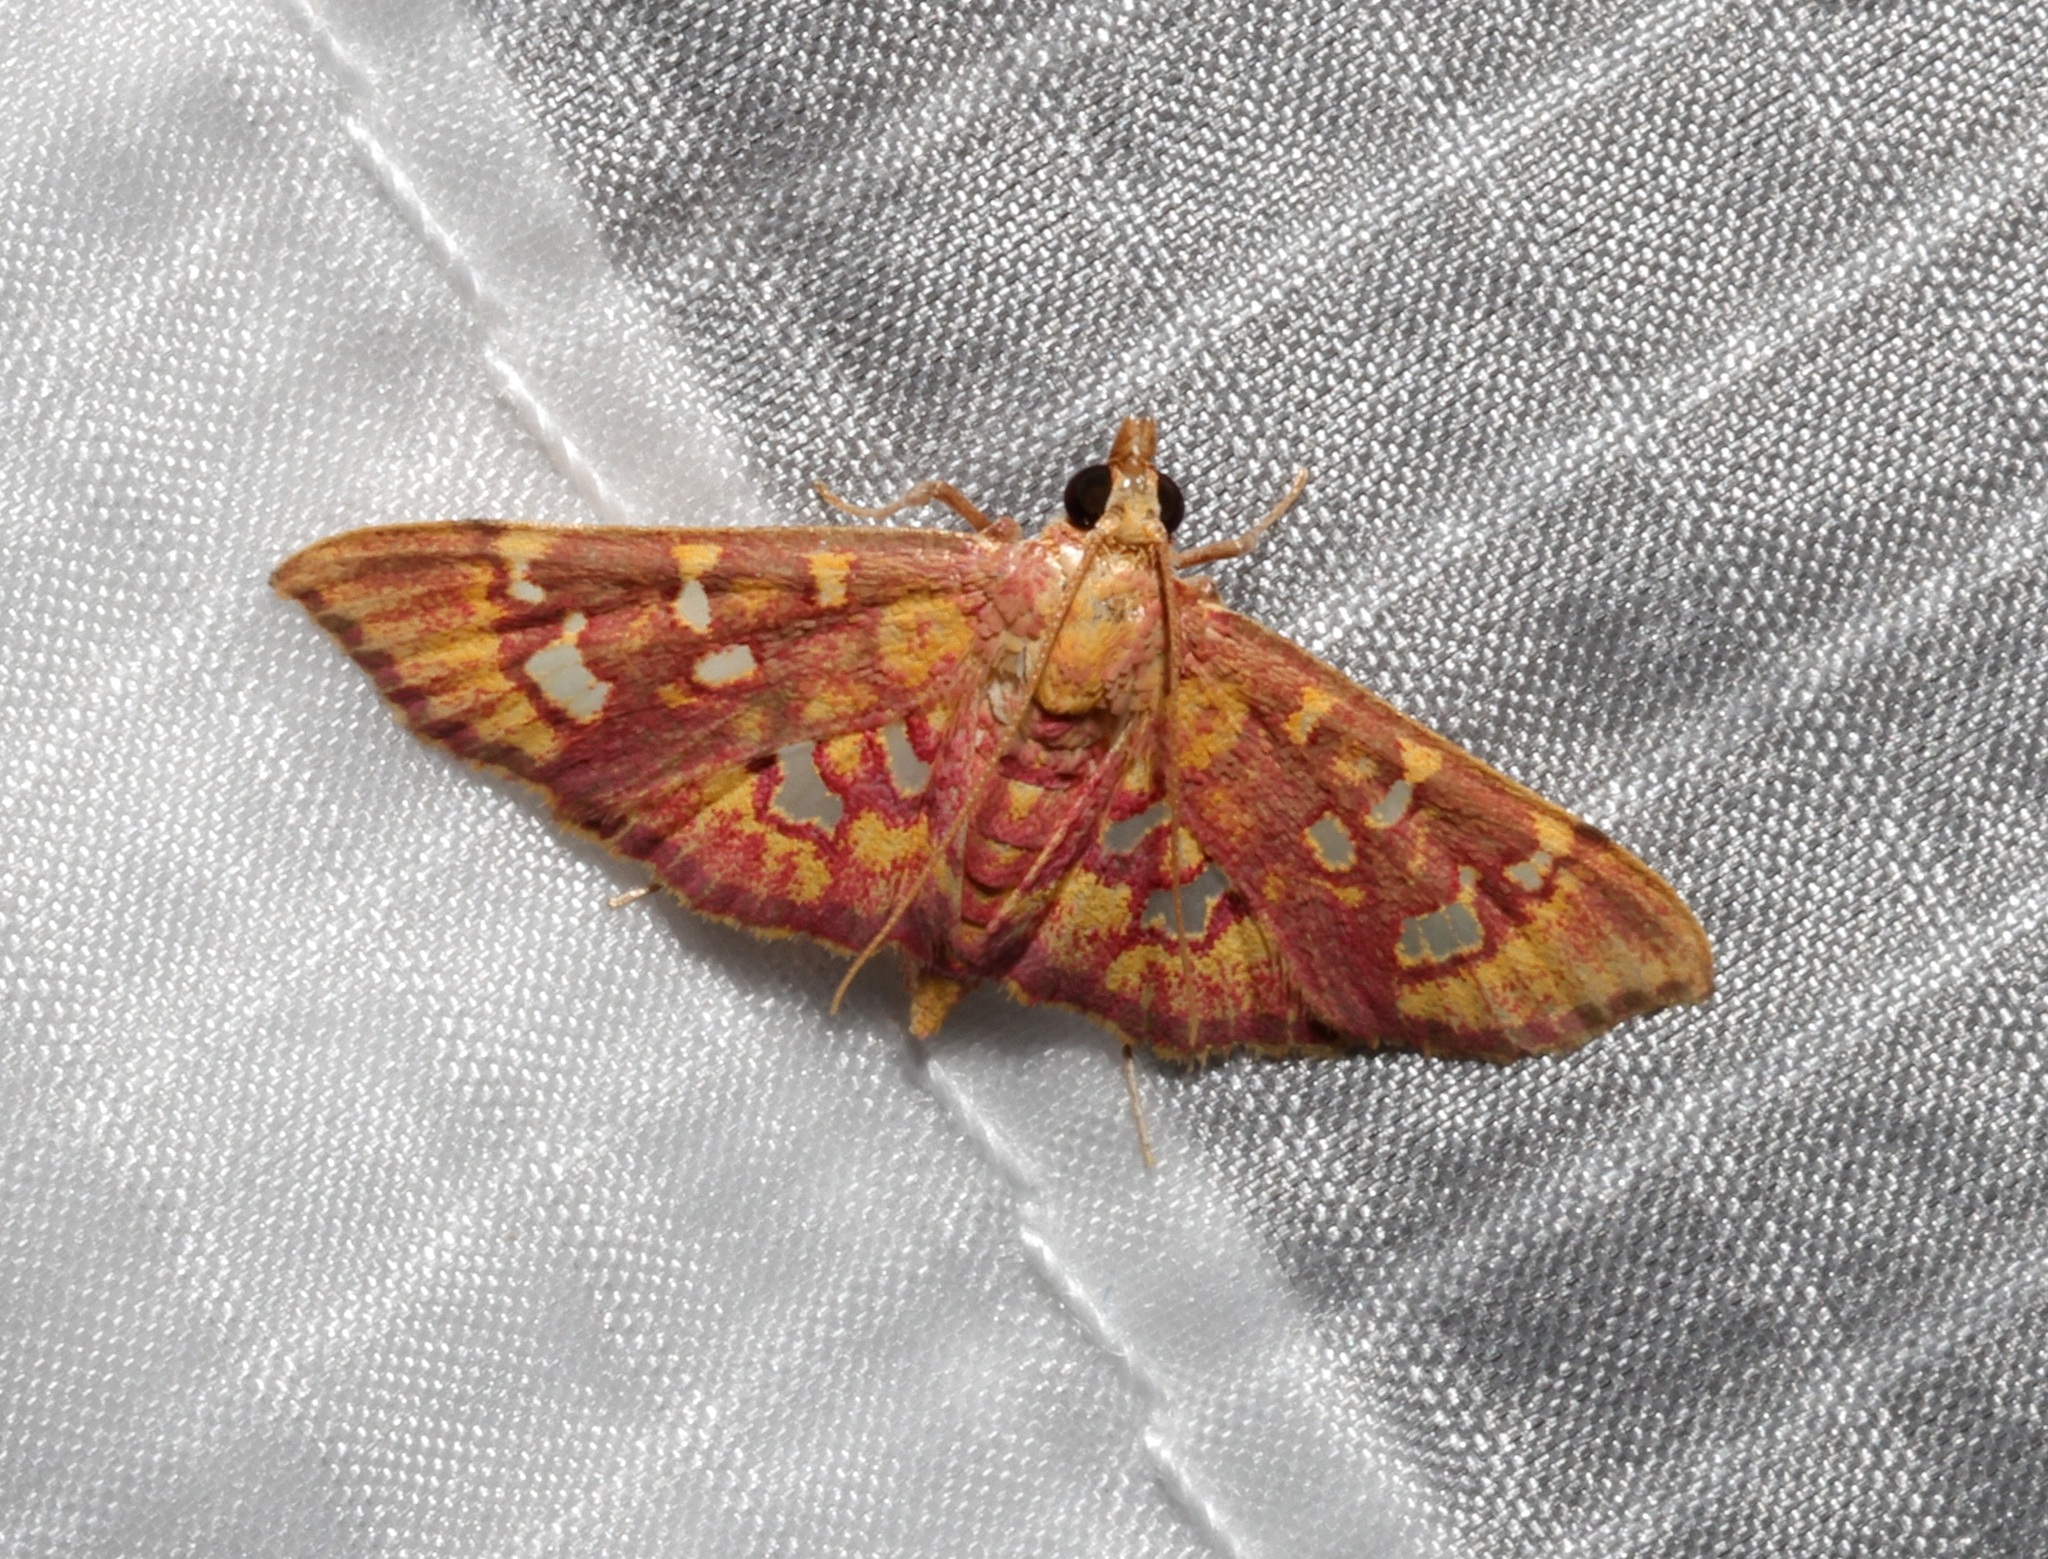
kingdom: Animalia
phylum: Arthropoda
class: Insecta
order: Lepidoptera
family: Crambidae
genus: Ischnurges
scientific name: Ischnurges gratiosalis
